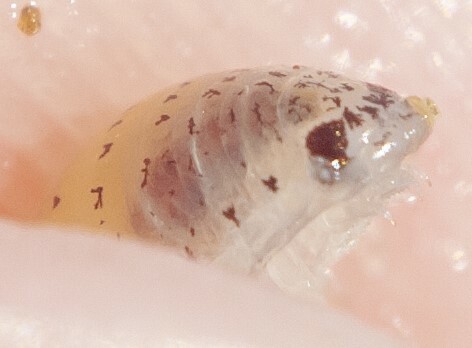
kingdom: Animalia
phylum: Arthropoda
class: Malacostraca
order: Isopoda
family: Cirolanidae
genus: Eurydice
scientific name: Eurydice pulchra
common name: Speckled sea louse
